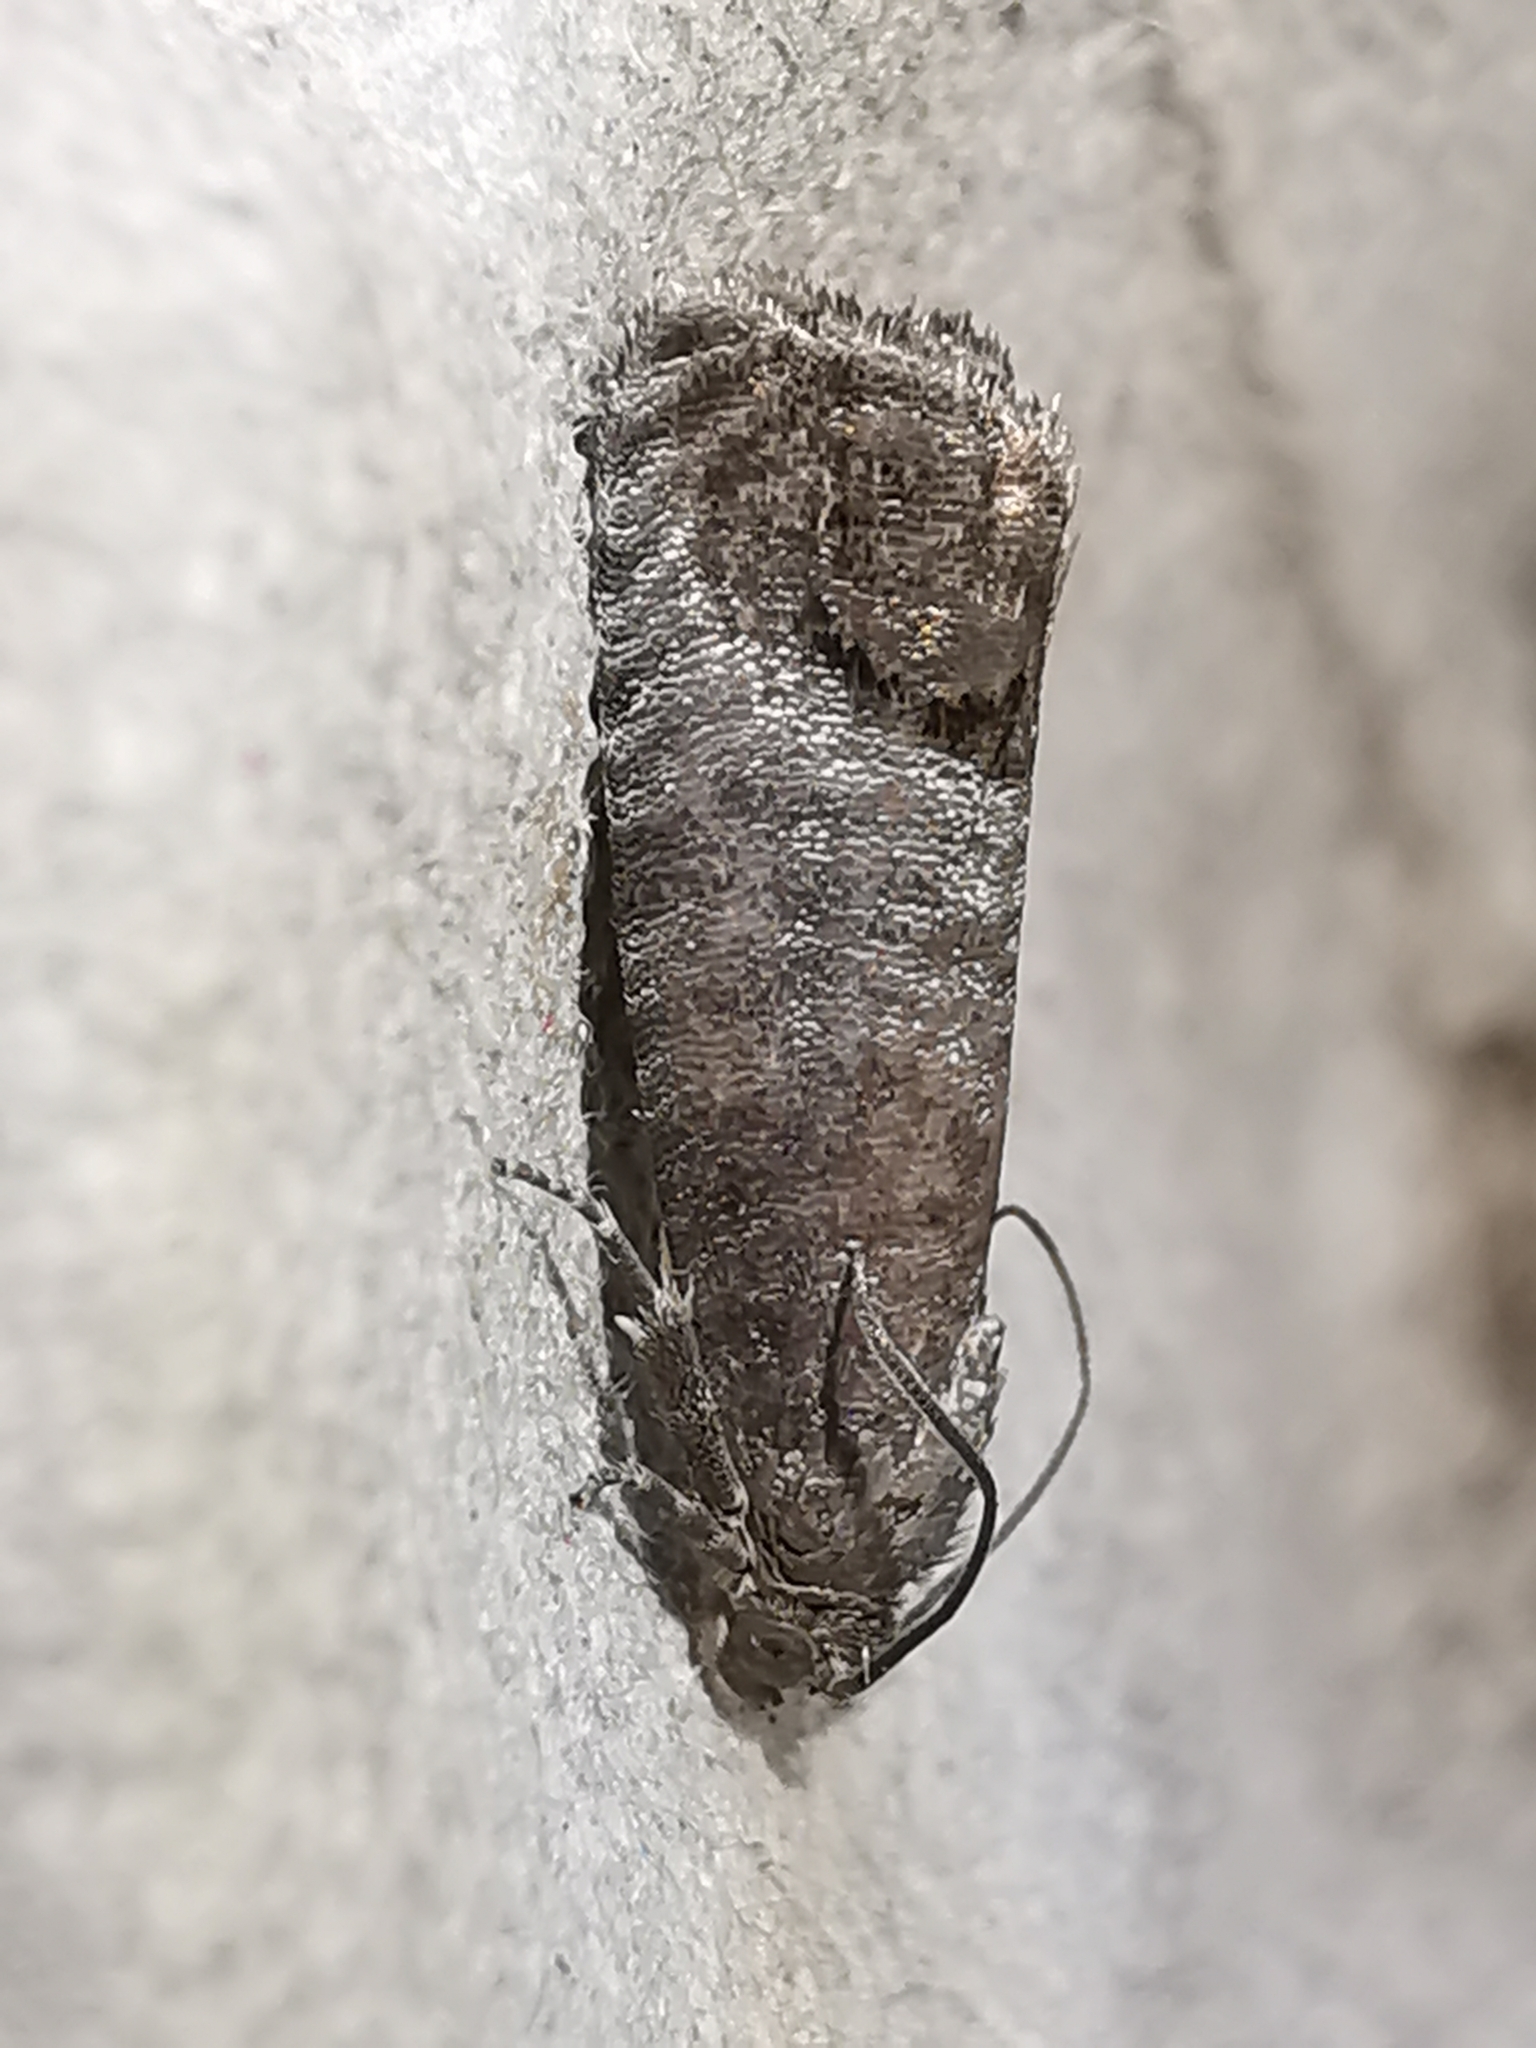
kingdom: Animalia
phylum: Arthropoda
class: Insecta
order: Lepidoptera
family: Tortricidae
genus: Cydia
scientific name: Cydia pomonella
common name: Codling moth
